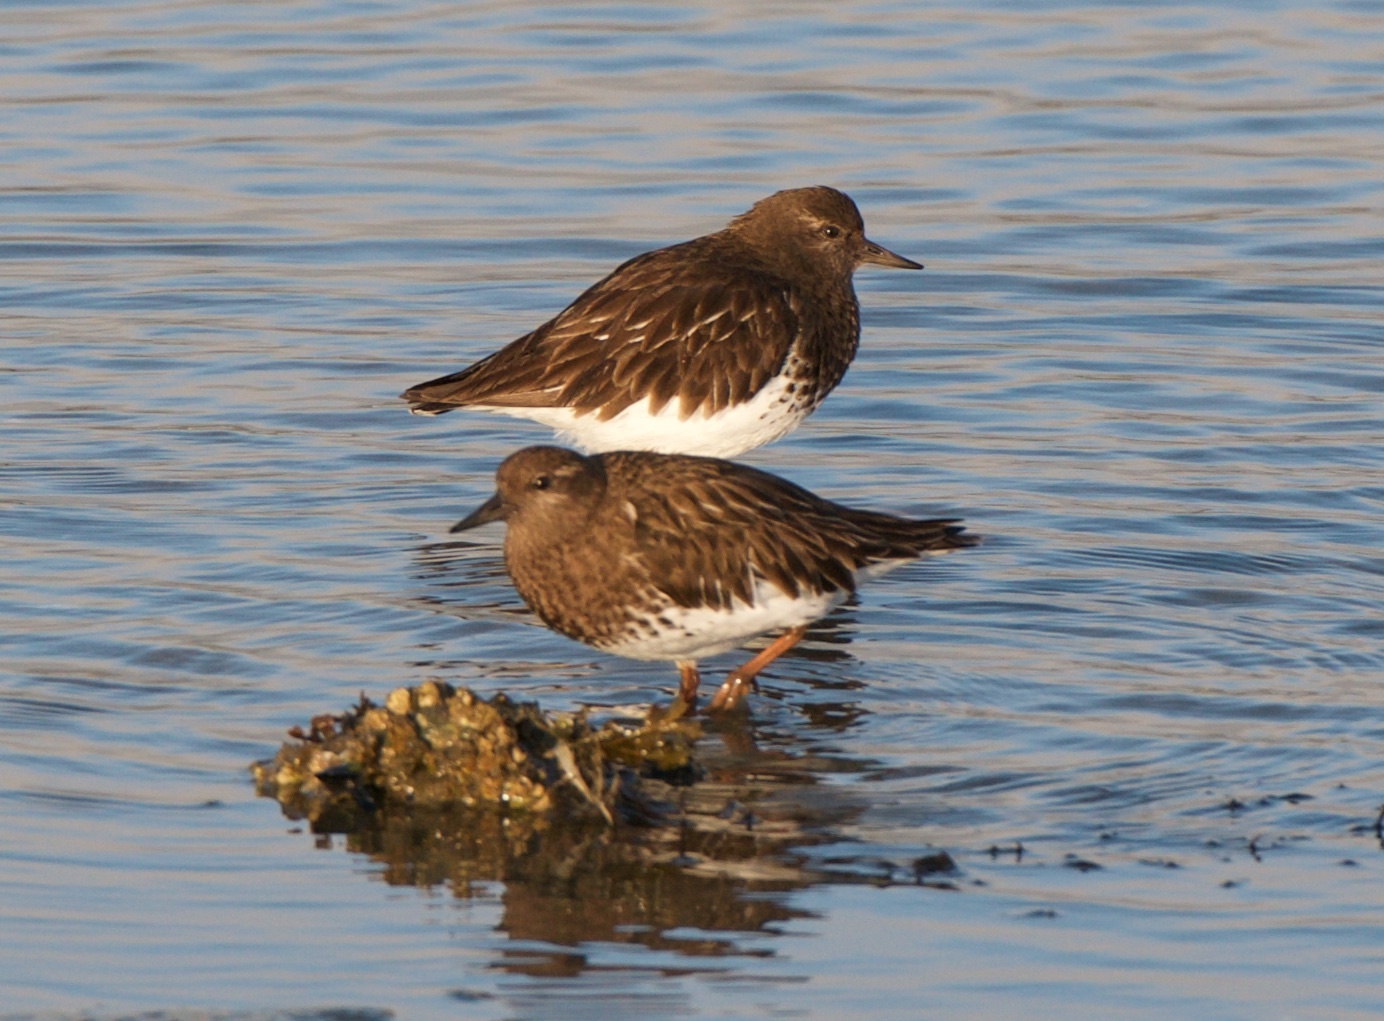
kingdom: Animalia
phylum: Chordata
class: Aves
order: Charadriiformes
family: Scolopacidae
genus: Arenaria
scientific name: Arenaria melanocephala
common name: Black turnstone
